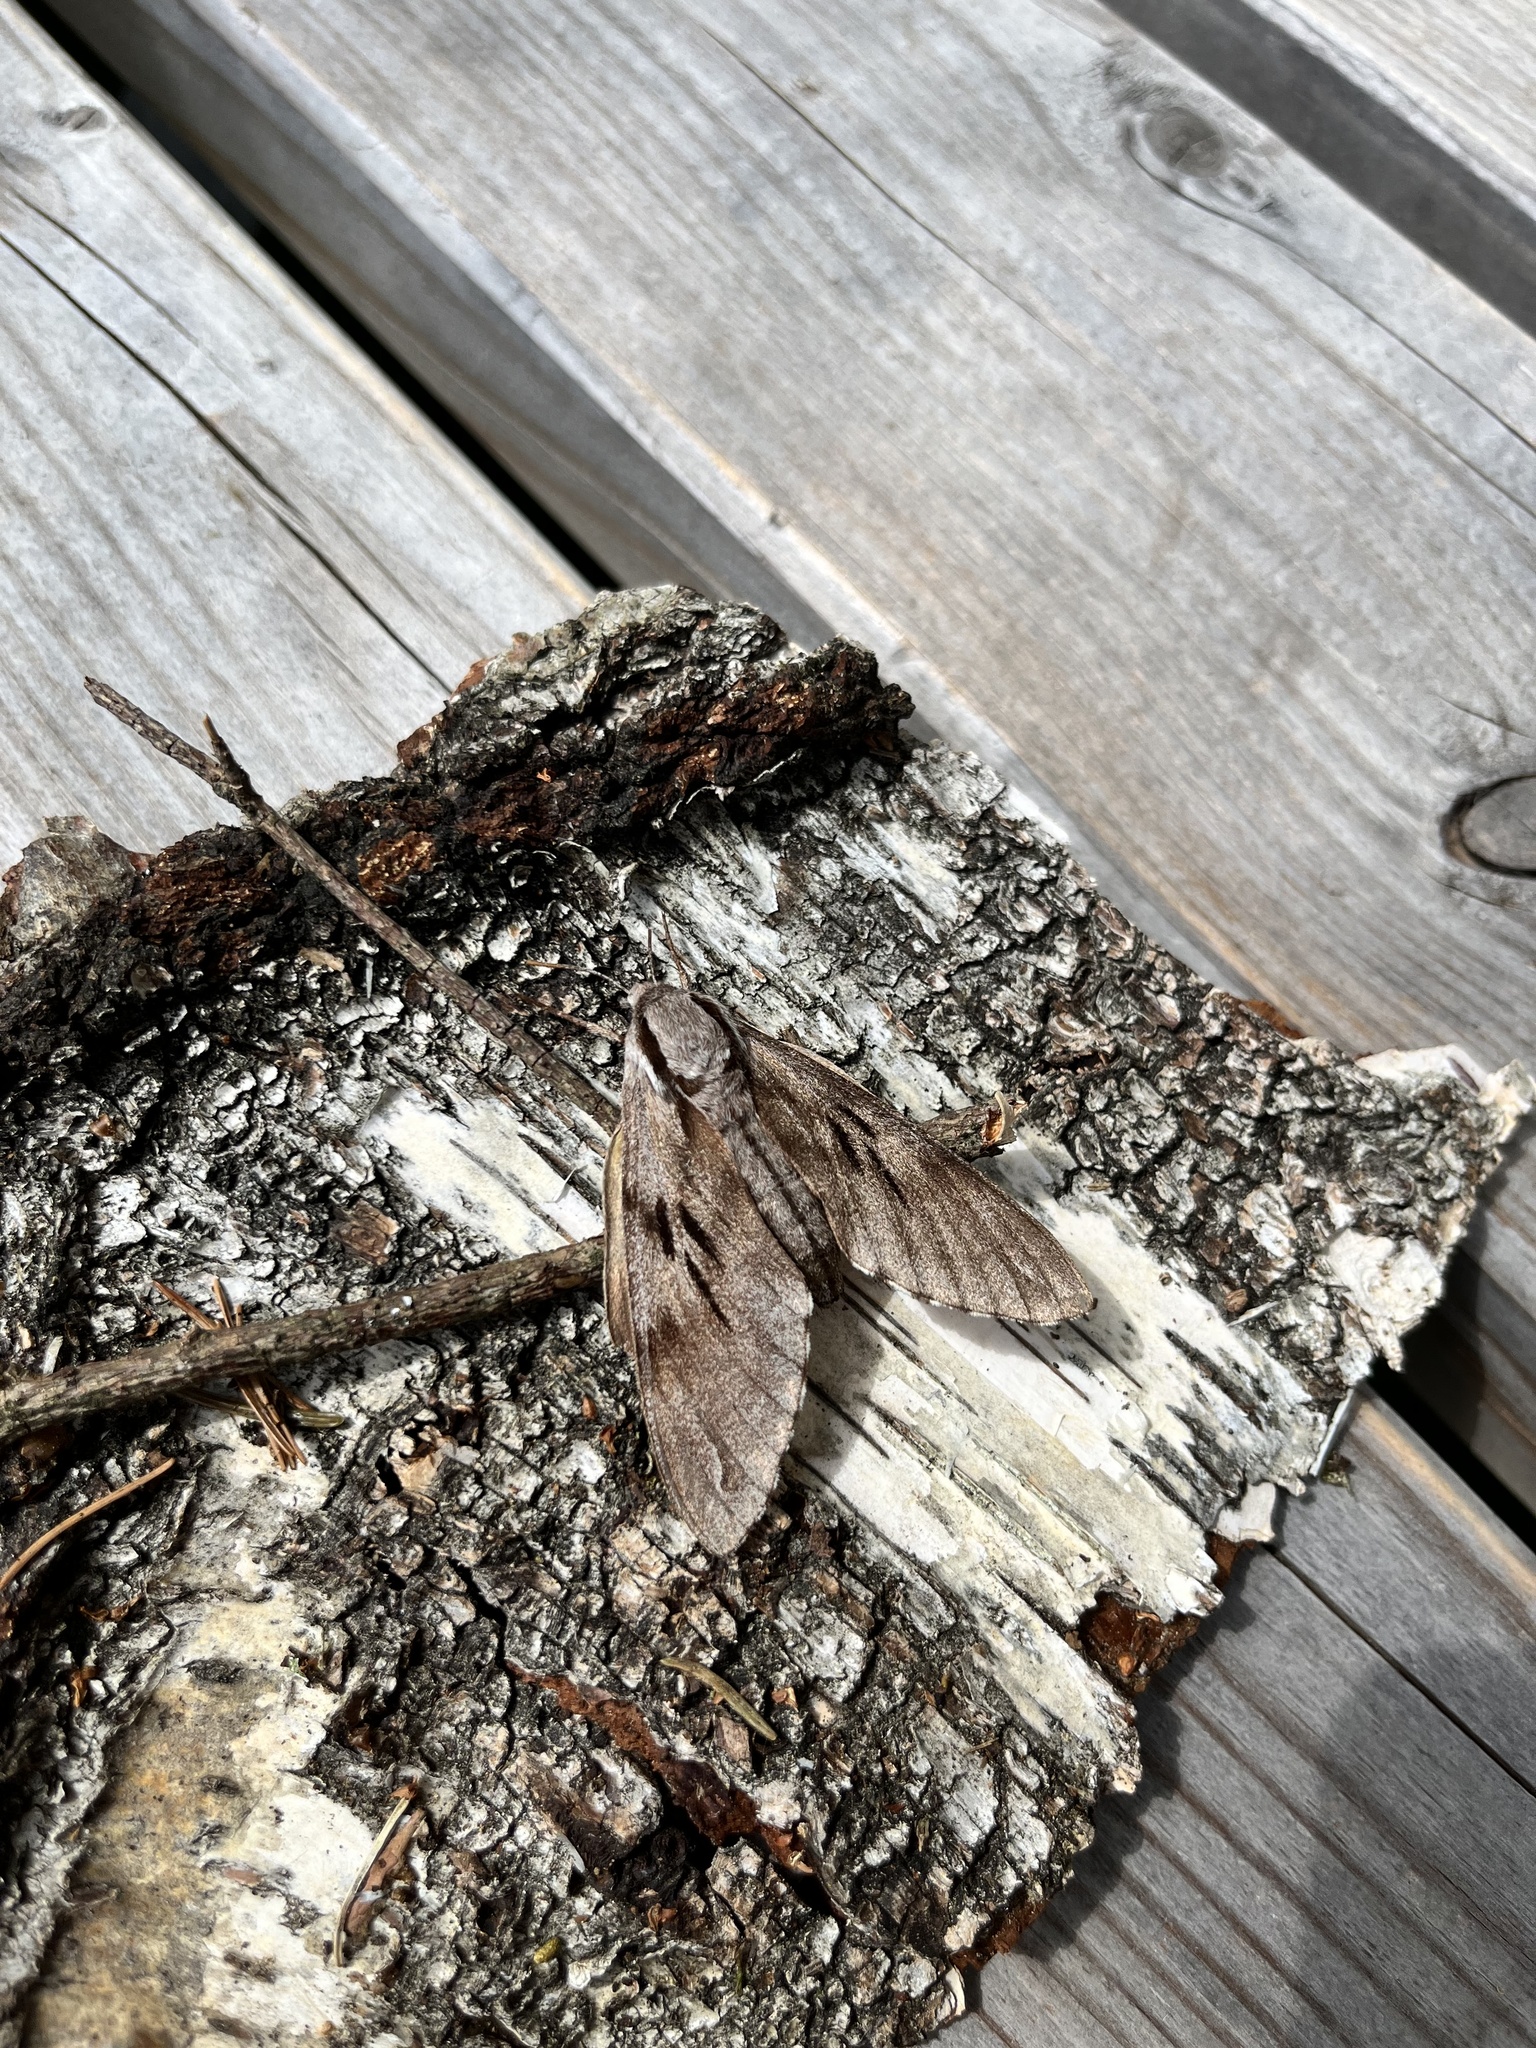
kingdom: Animalia
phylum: Arthropoda
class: Insecta
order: Lepidoptera
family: Sphingidae
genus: Sphinx
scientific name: Sphinx pinastri
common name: Pine hawk-moth
